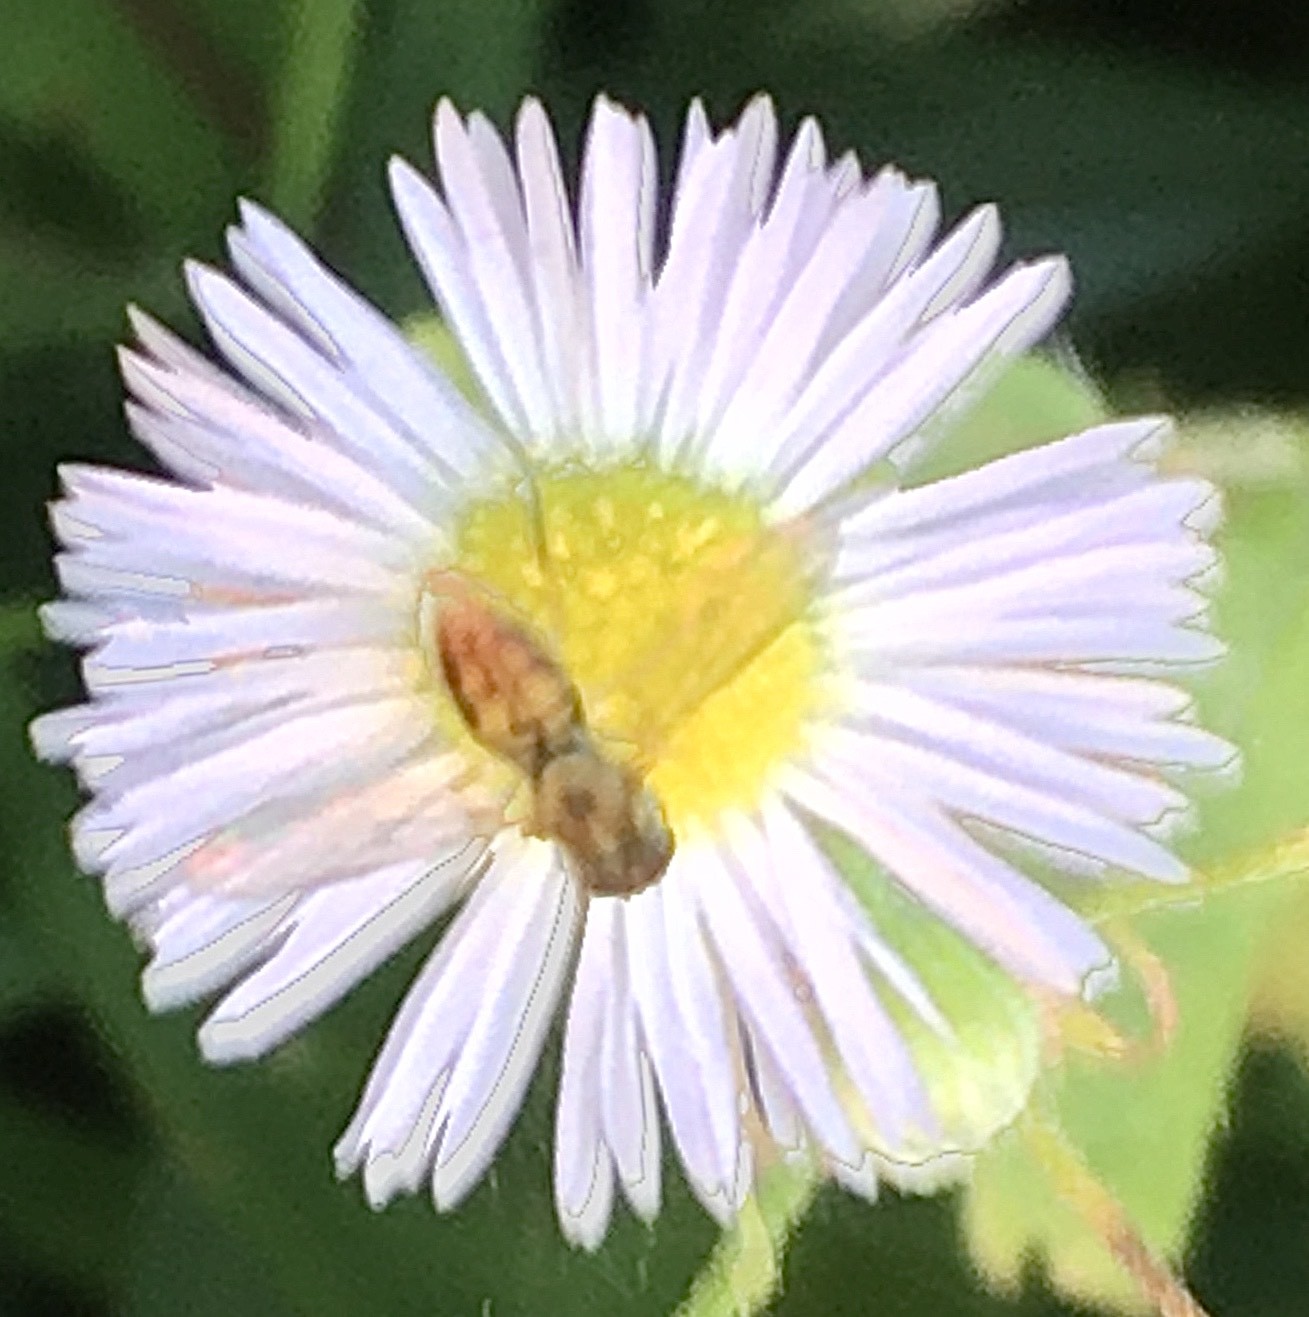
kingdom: Animalia
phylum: Arthropoda
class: Insecta
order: Diptera
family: Syrphidae
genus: Toxomerus
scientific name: Toxomerus marginatus
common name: Syrphid fly
